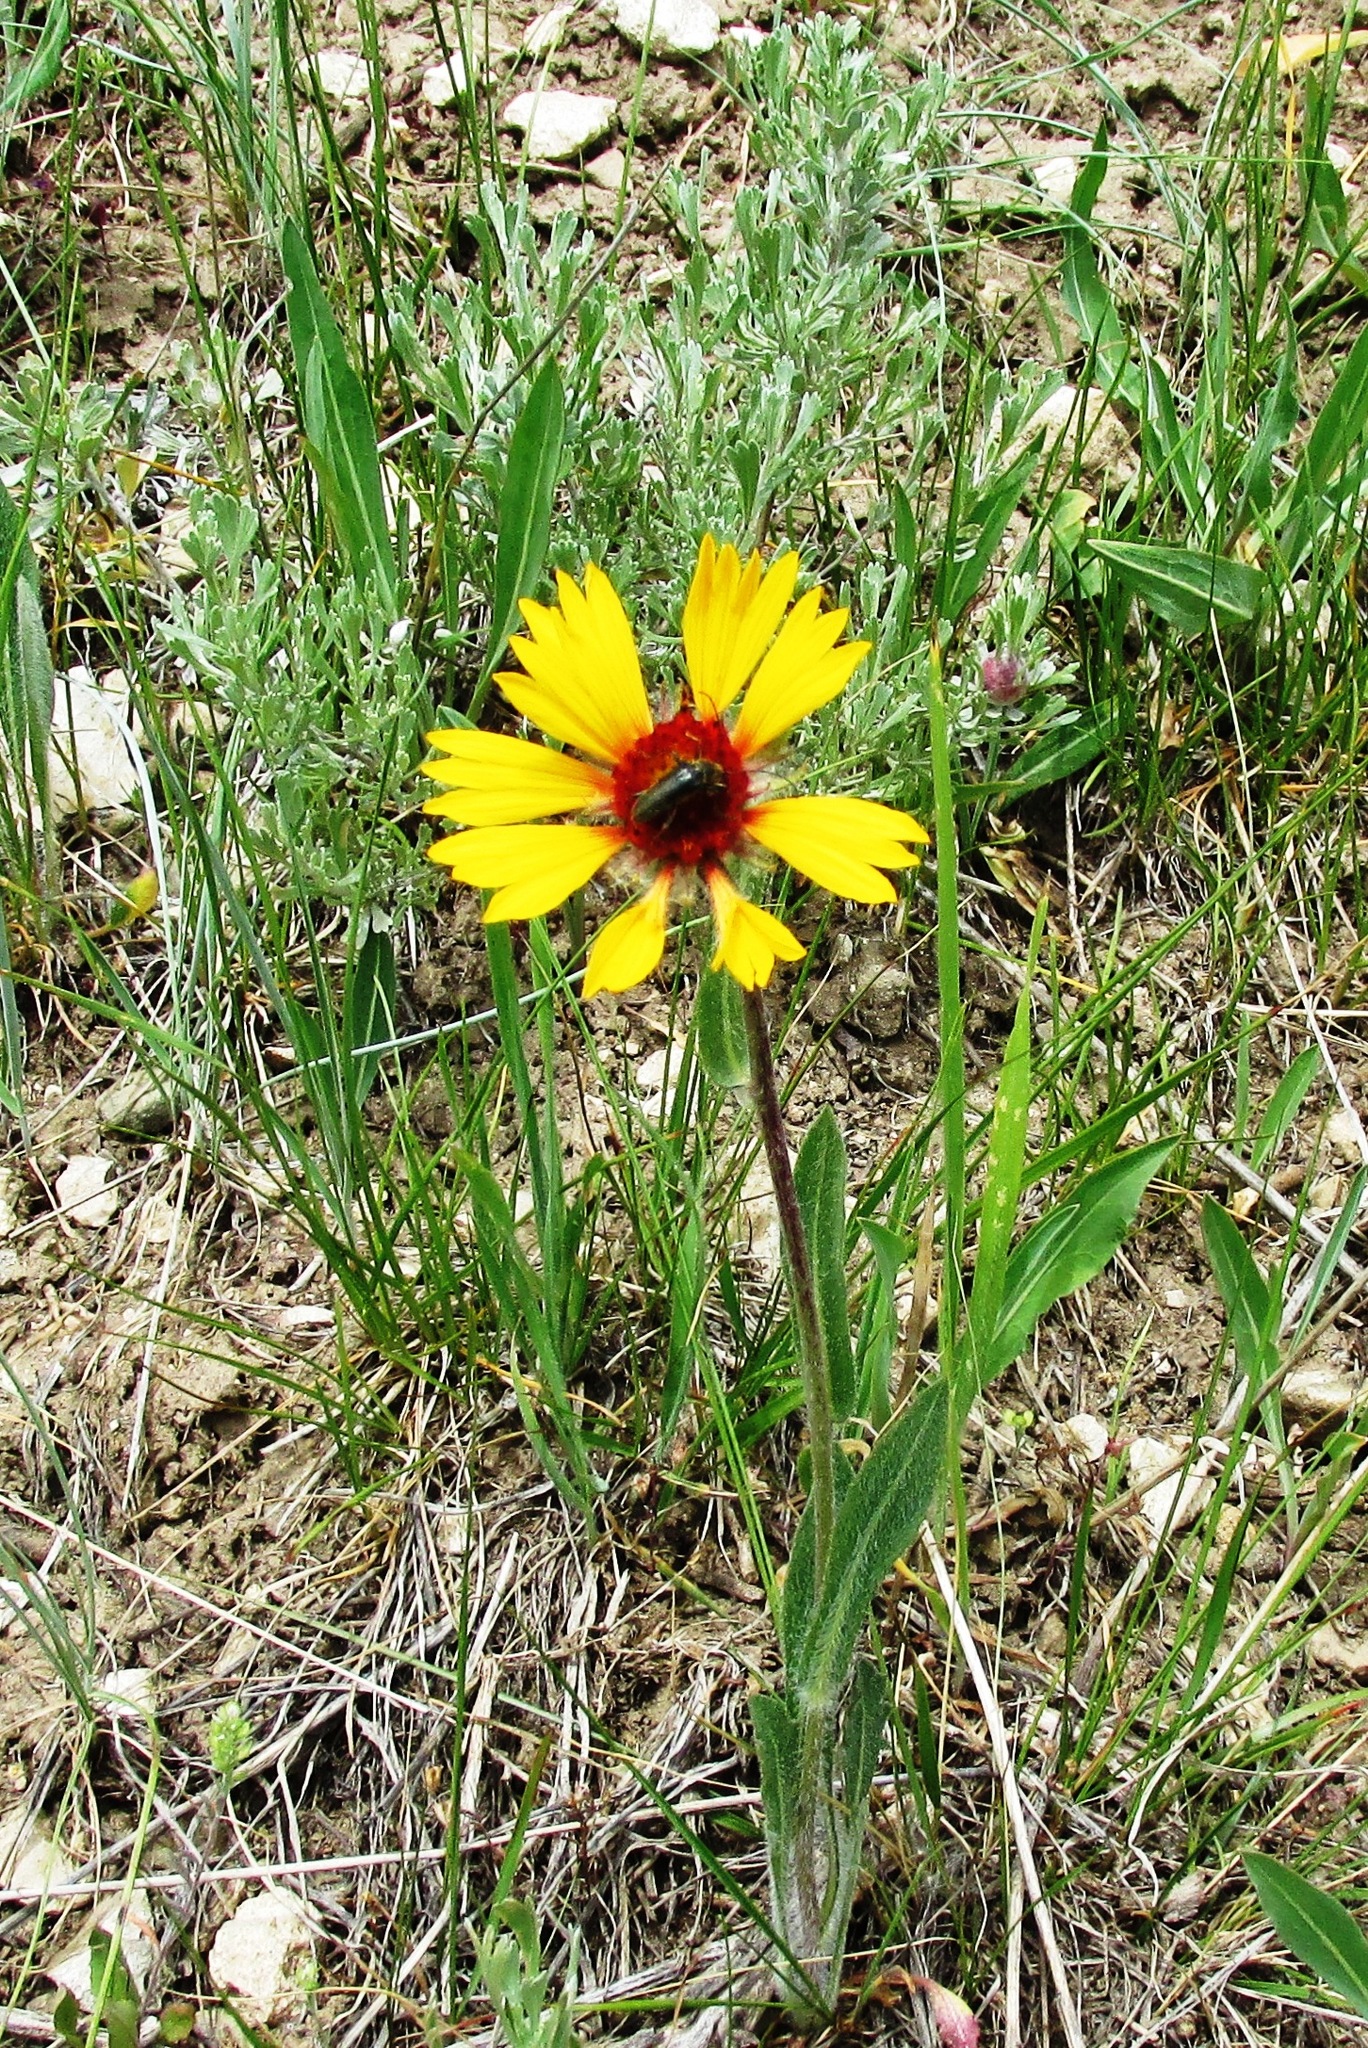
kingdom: Plantae
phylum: Tracheophyta
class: Magnoliopsida
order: Asterales
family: Asteraceae
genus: Gaillardia
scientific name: Gaillardia aristata
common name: Blanket-flower
